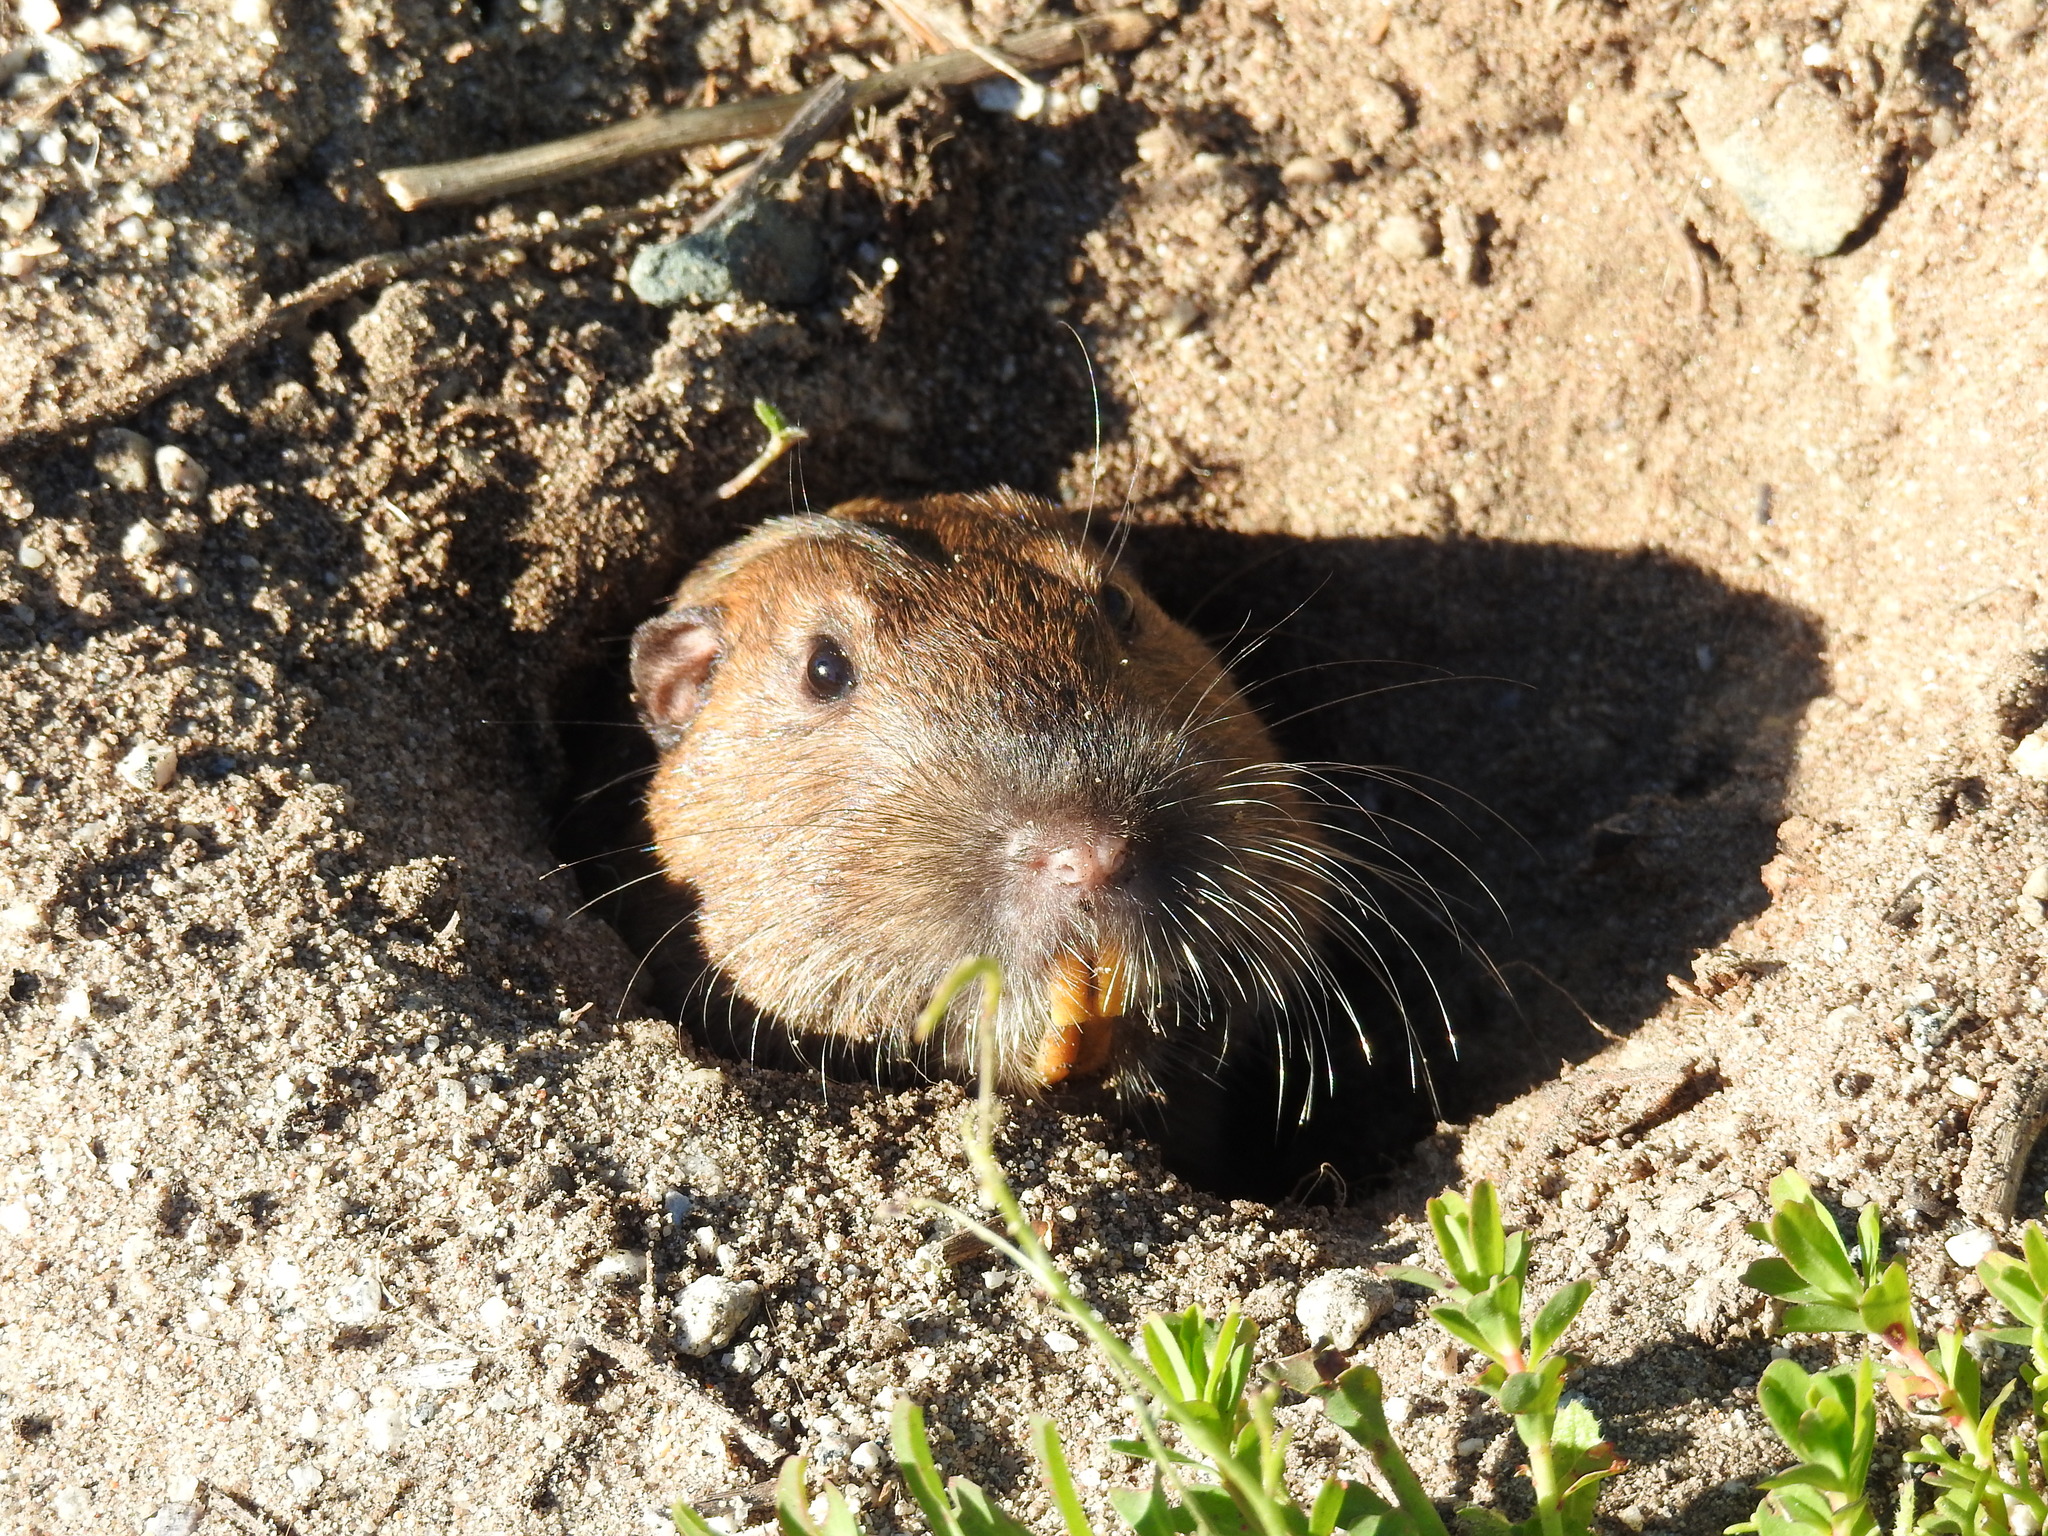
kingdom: Animalia
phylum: Chordata
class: Mammalia
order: Rodentia
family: Geomyidae
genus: Thomomys
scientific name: Thomomys bottae
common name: Botta's pocket gopher
